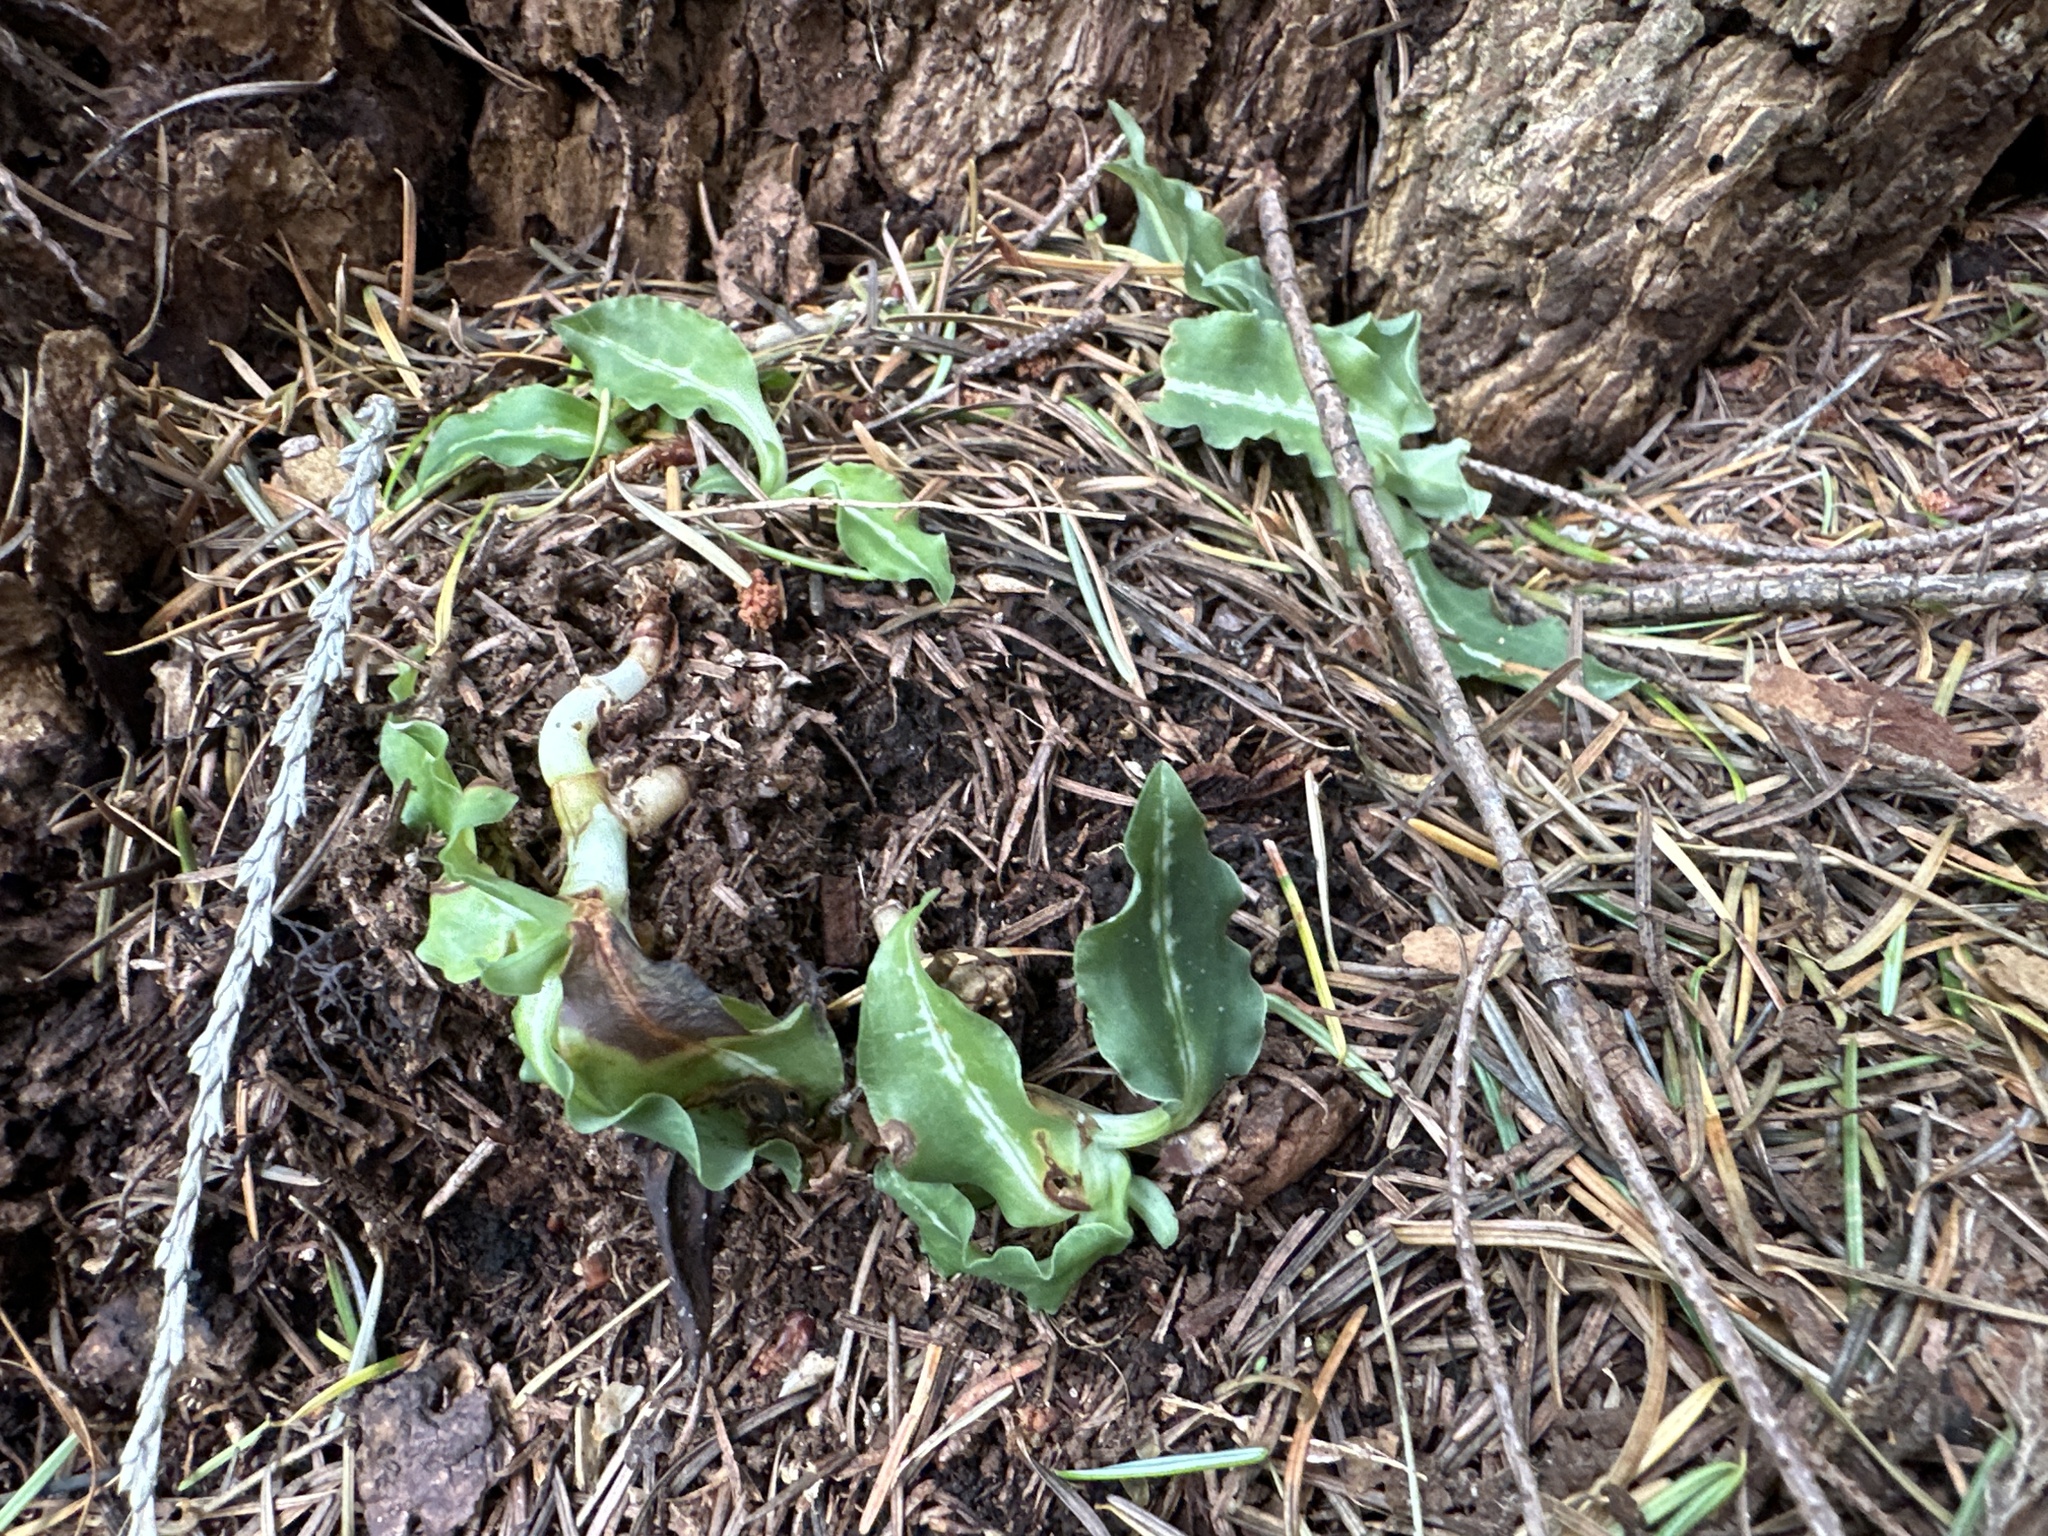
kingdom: Plantae
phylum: Tracheophyta
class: Liliopsida
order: Asparagales
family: Orchidaceae
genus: Goodyera
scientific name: Goodyera oblongifolia
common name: Giant rattlesnake-plantain
